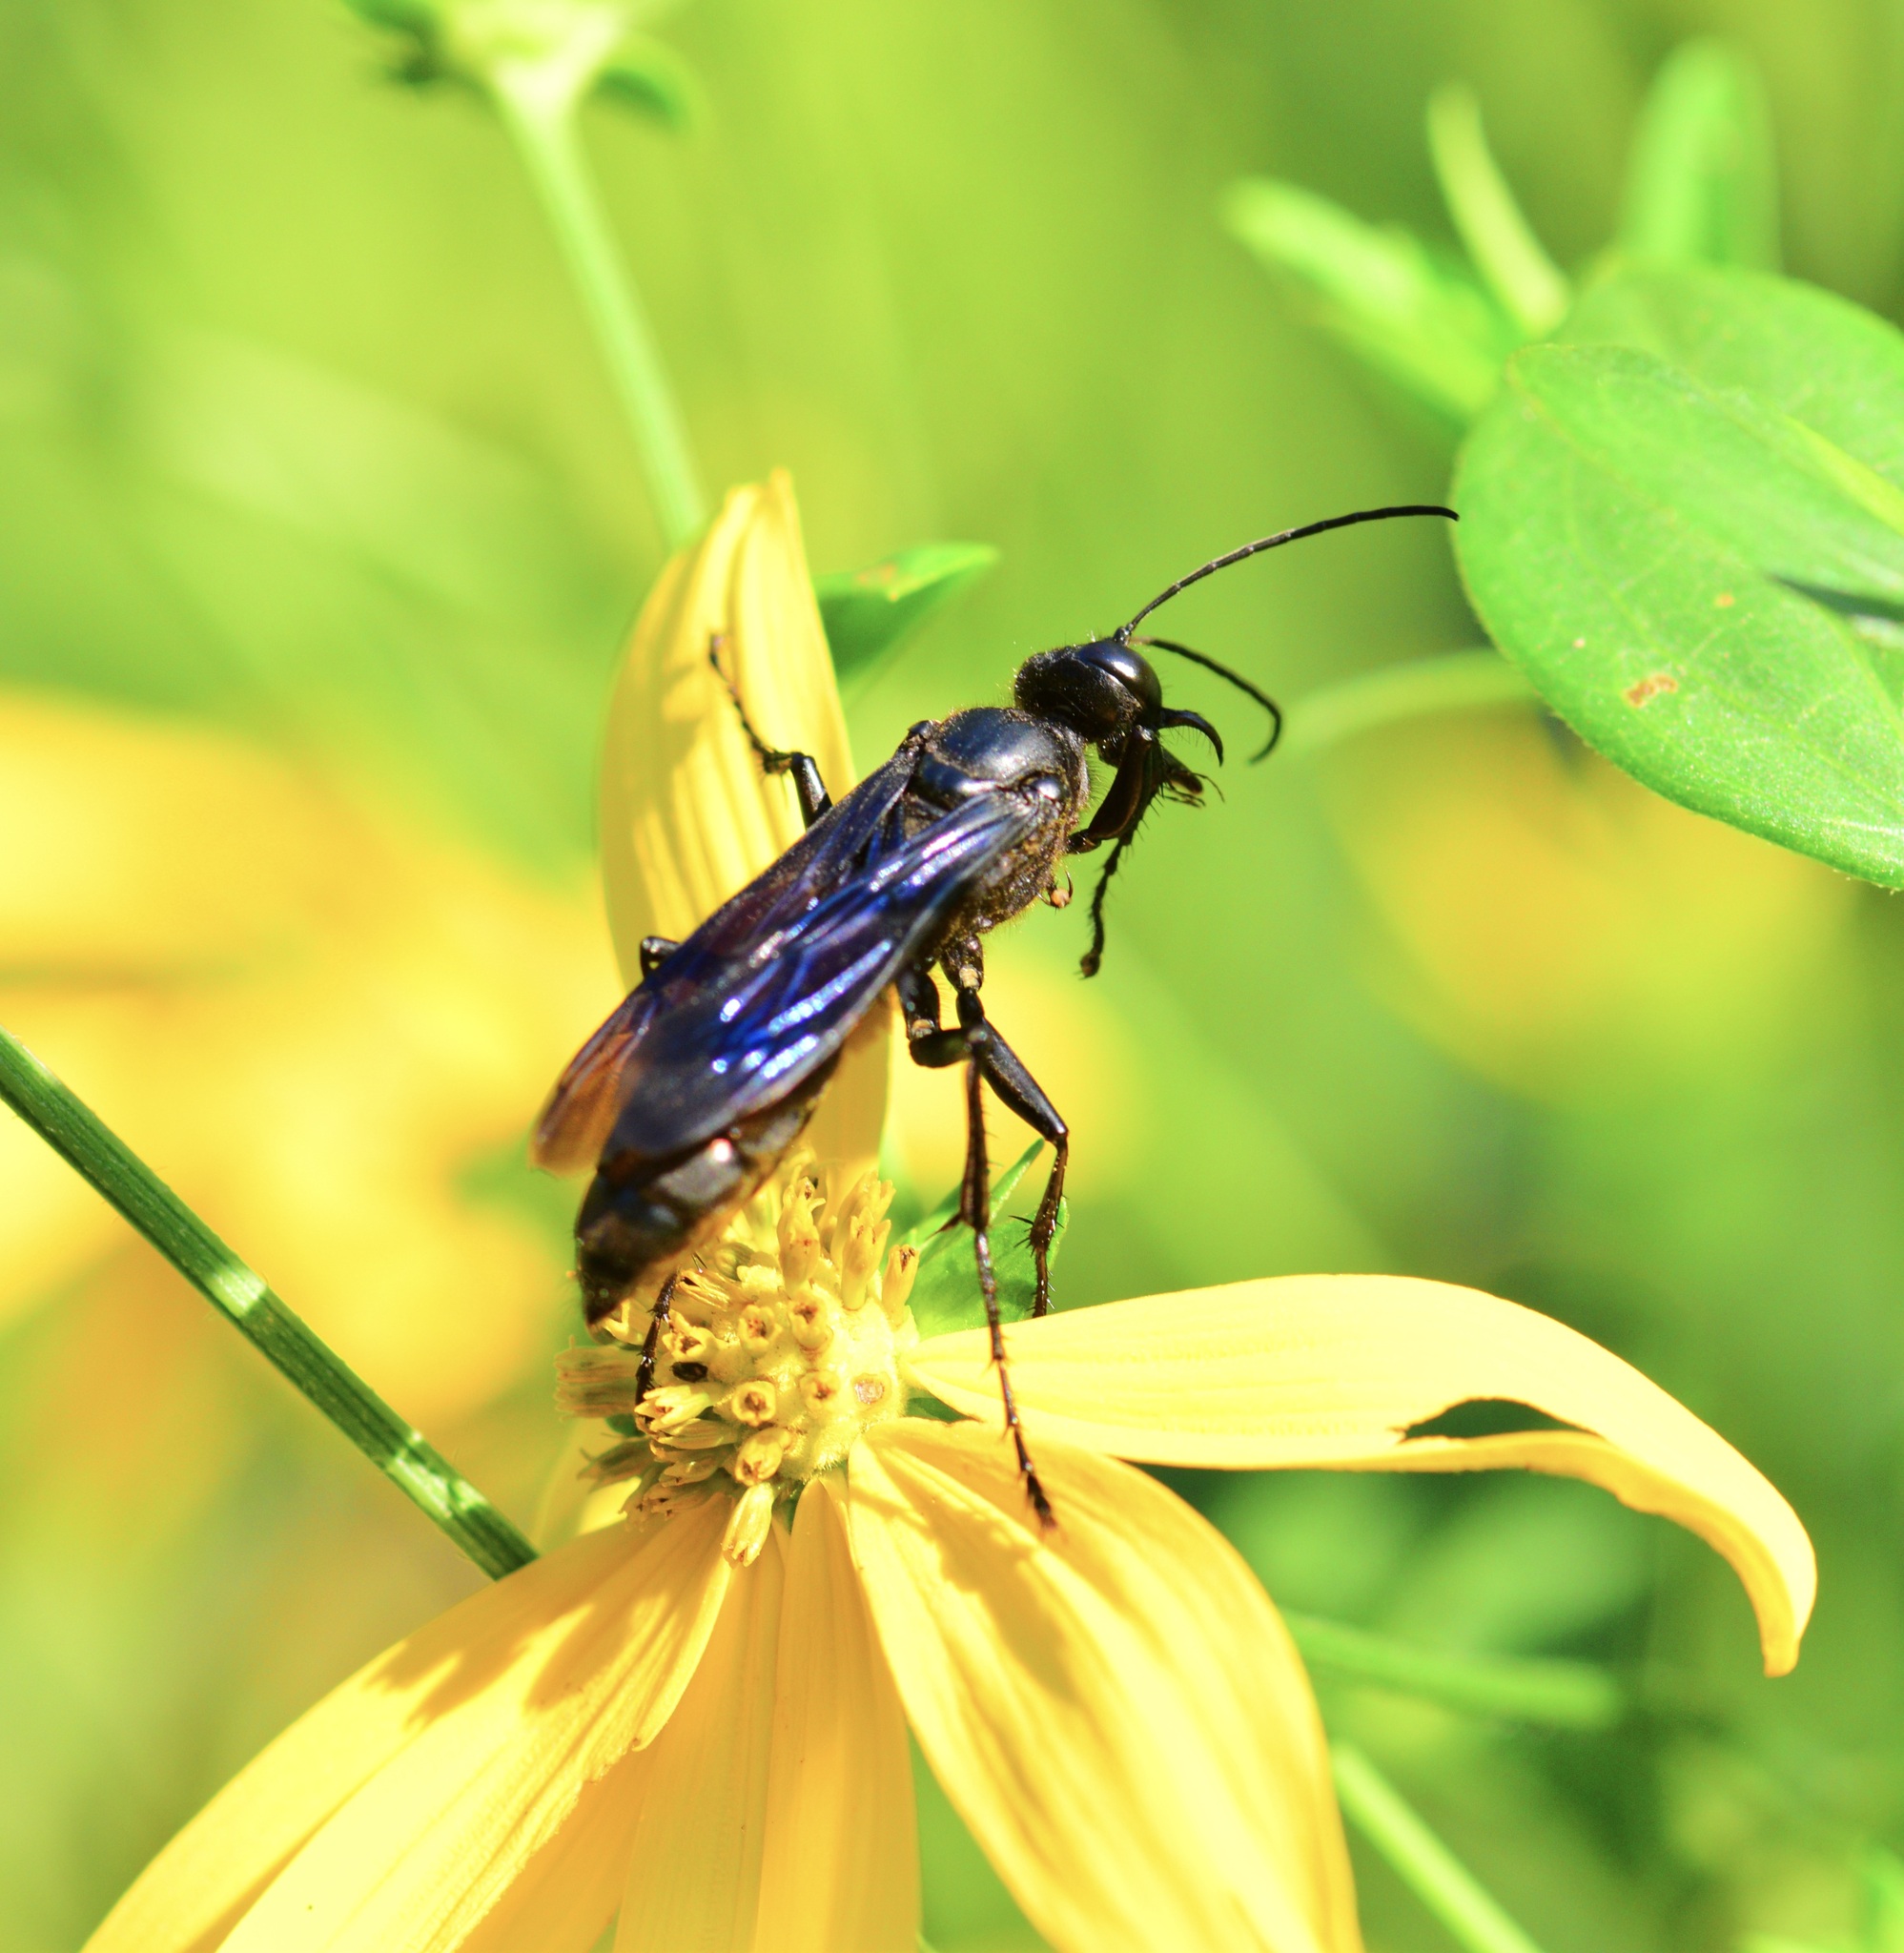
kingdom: Animalia
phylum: Arthropoda
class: Insecta
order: Hymenoptera
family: Sphecidae
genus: Sphex
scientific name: Sphex pensylvanicus
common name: Great black digger wasp
